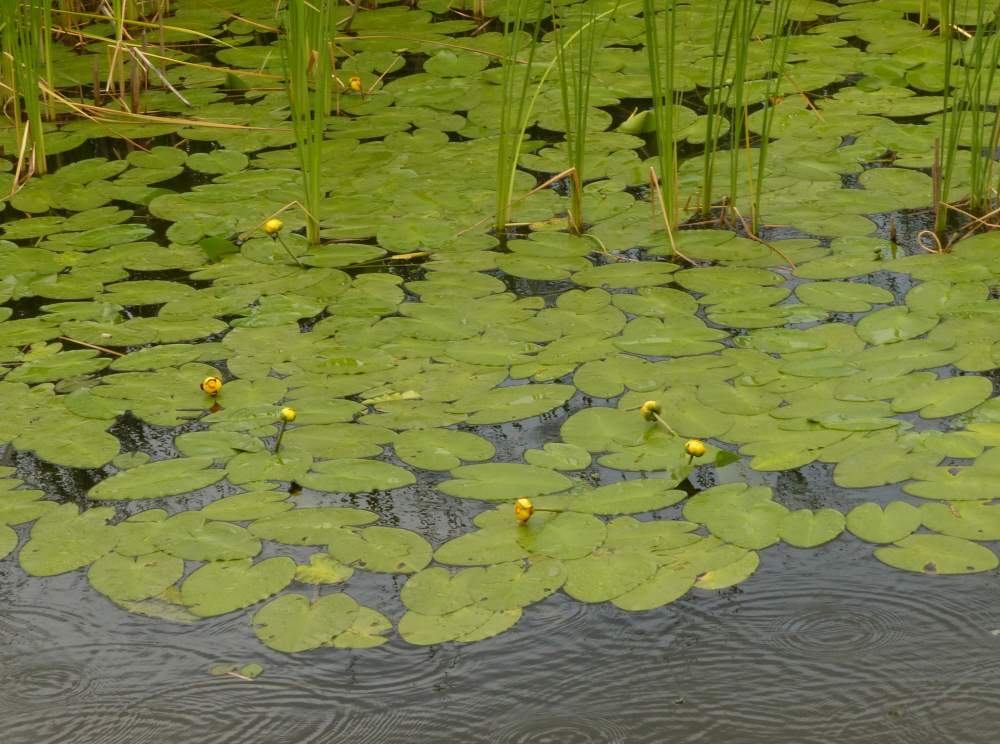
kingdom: Plantae
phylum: Tracheophyta
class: Magnoliopsida
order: Nymphaeales
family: Nymphaeaceae
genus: Nuphar
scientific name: Nuphar variegata
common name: Beaver-root
